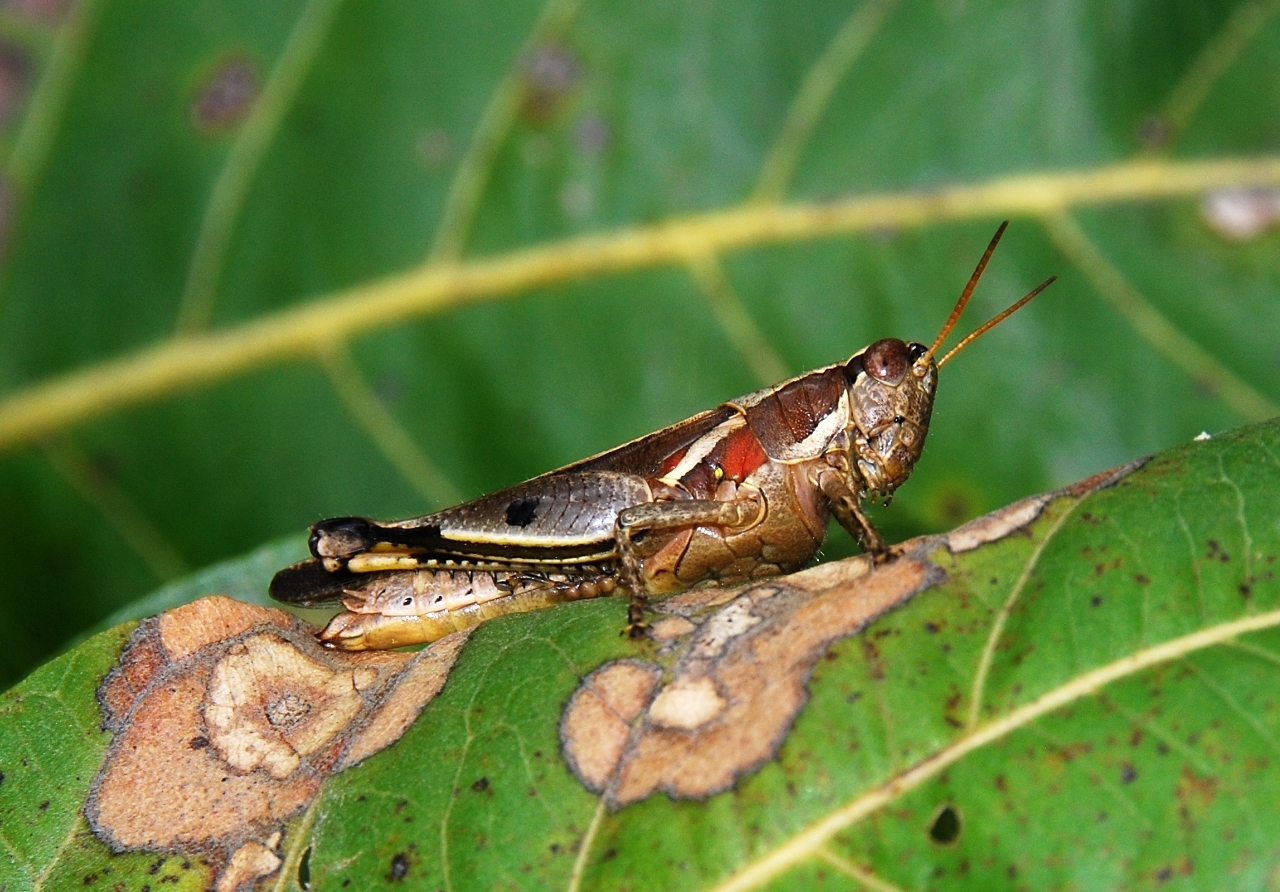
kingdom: Animalia
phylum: Arthropoda
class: Insecta
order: Orthoptera
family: Acrididae
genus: Phaeocatantops
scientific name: Phaeocatantops decoratus
